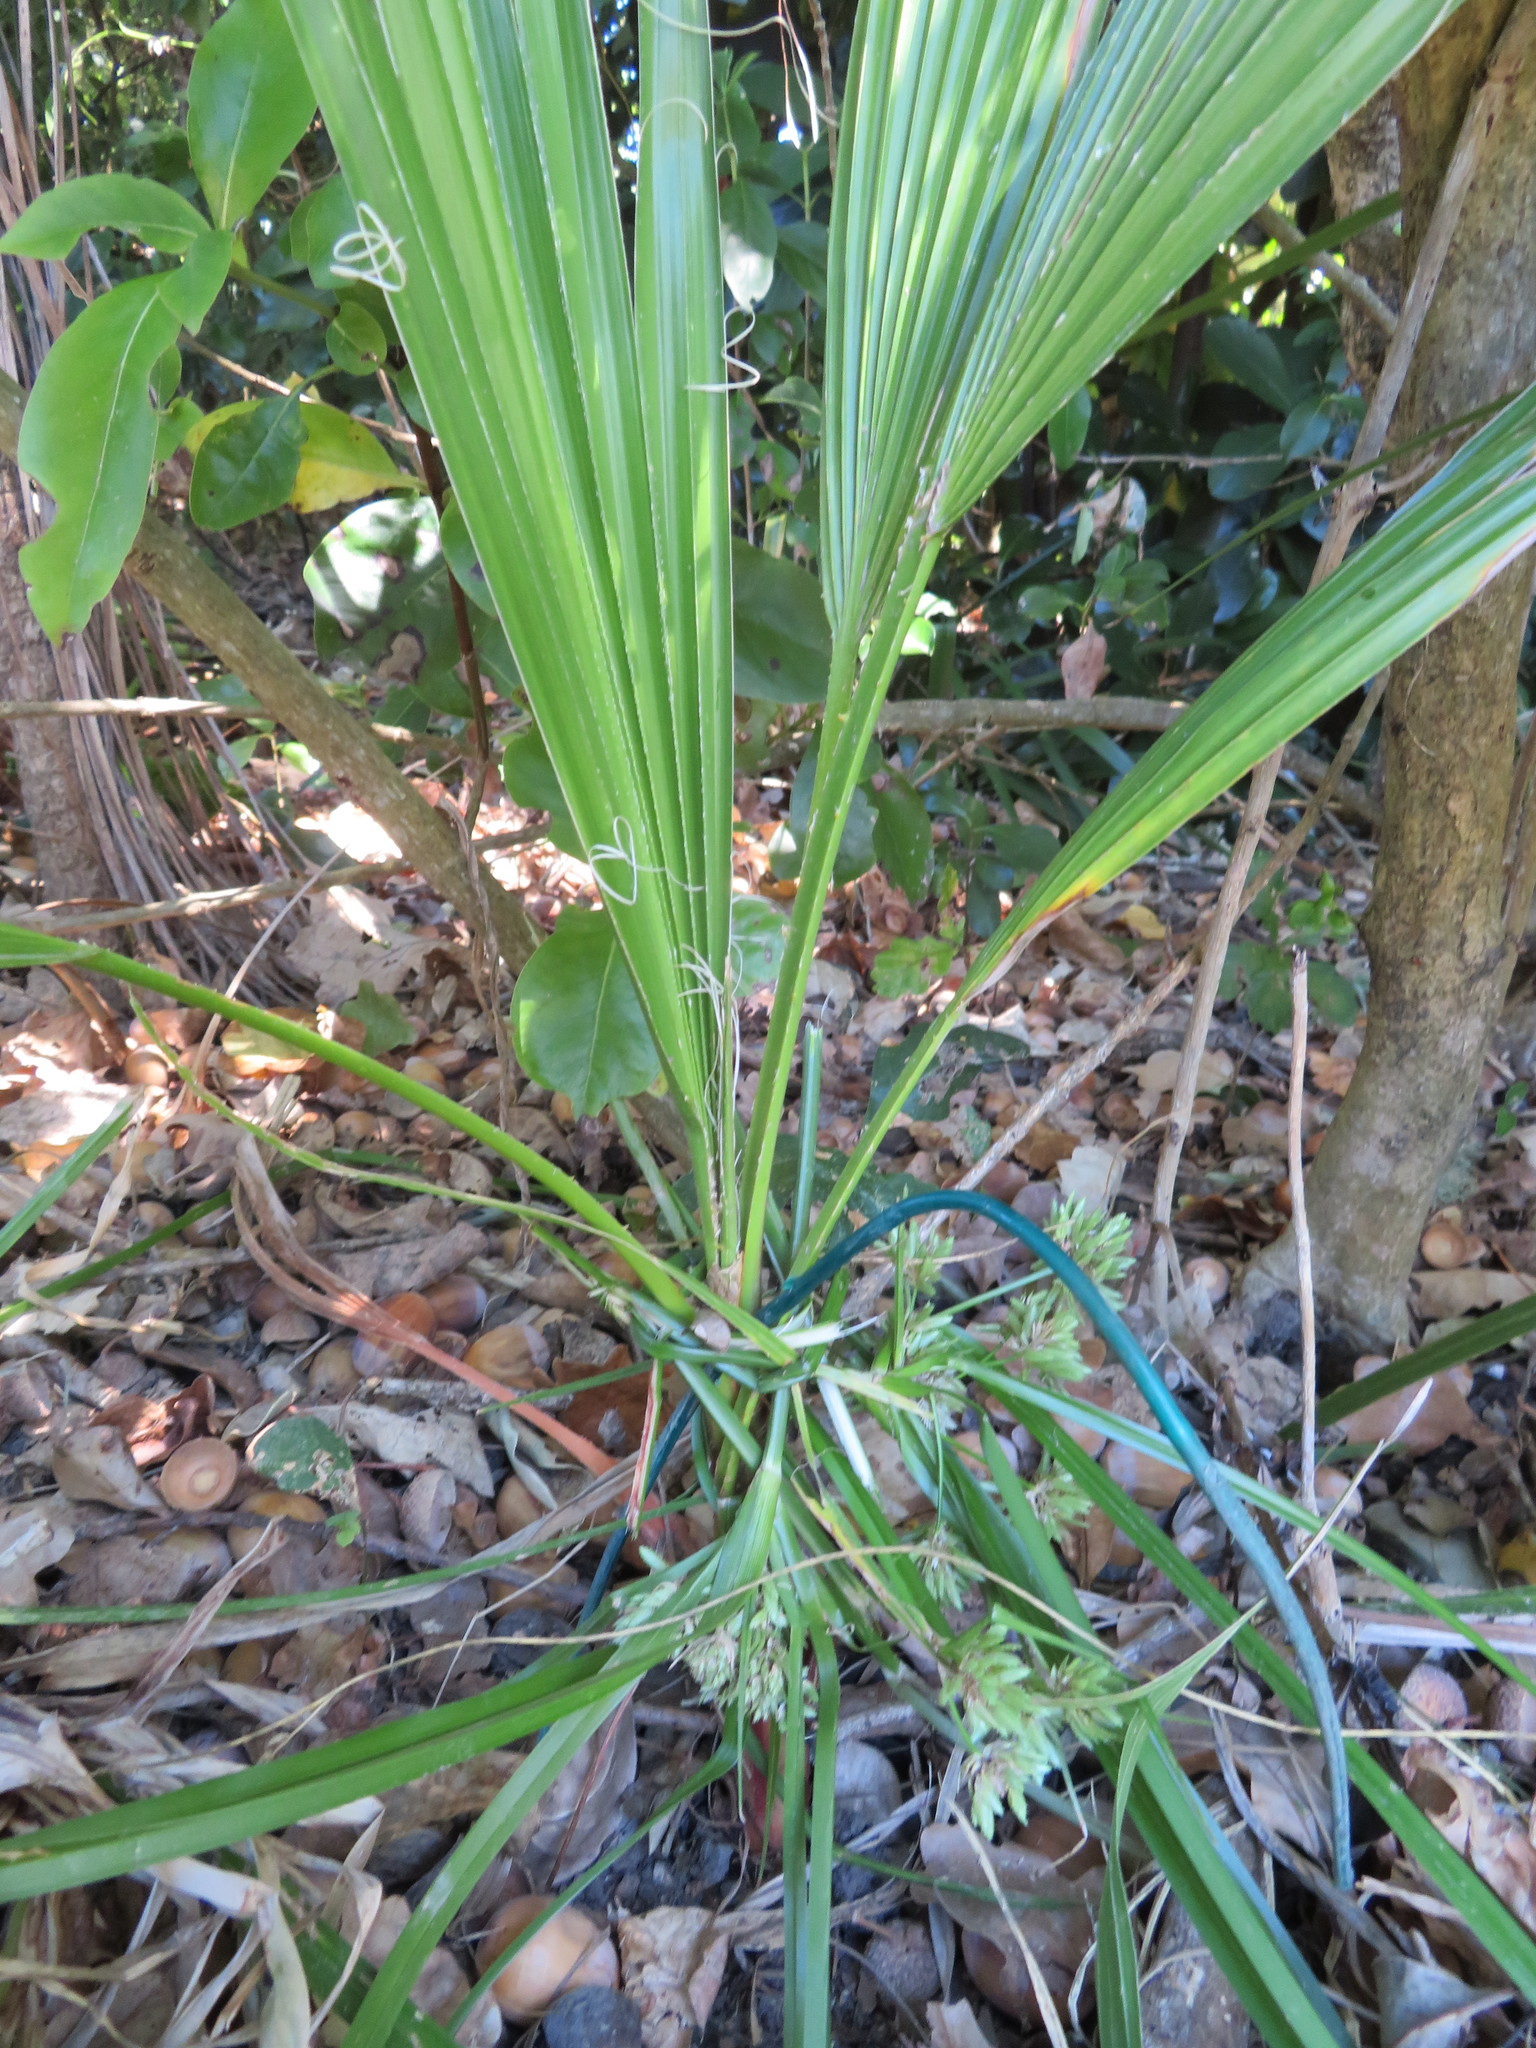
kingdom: Plantae
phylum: Tracheophyta
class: Liliopsida
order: Arecales
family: Arecaceae
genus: Washingtonia
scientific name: Washingtonia robusta
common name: Mexican fan palm
